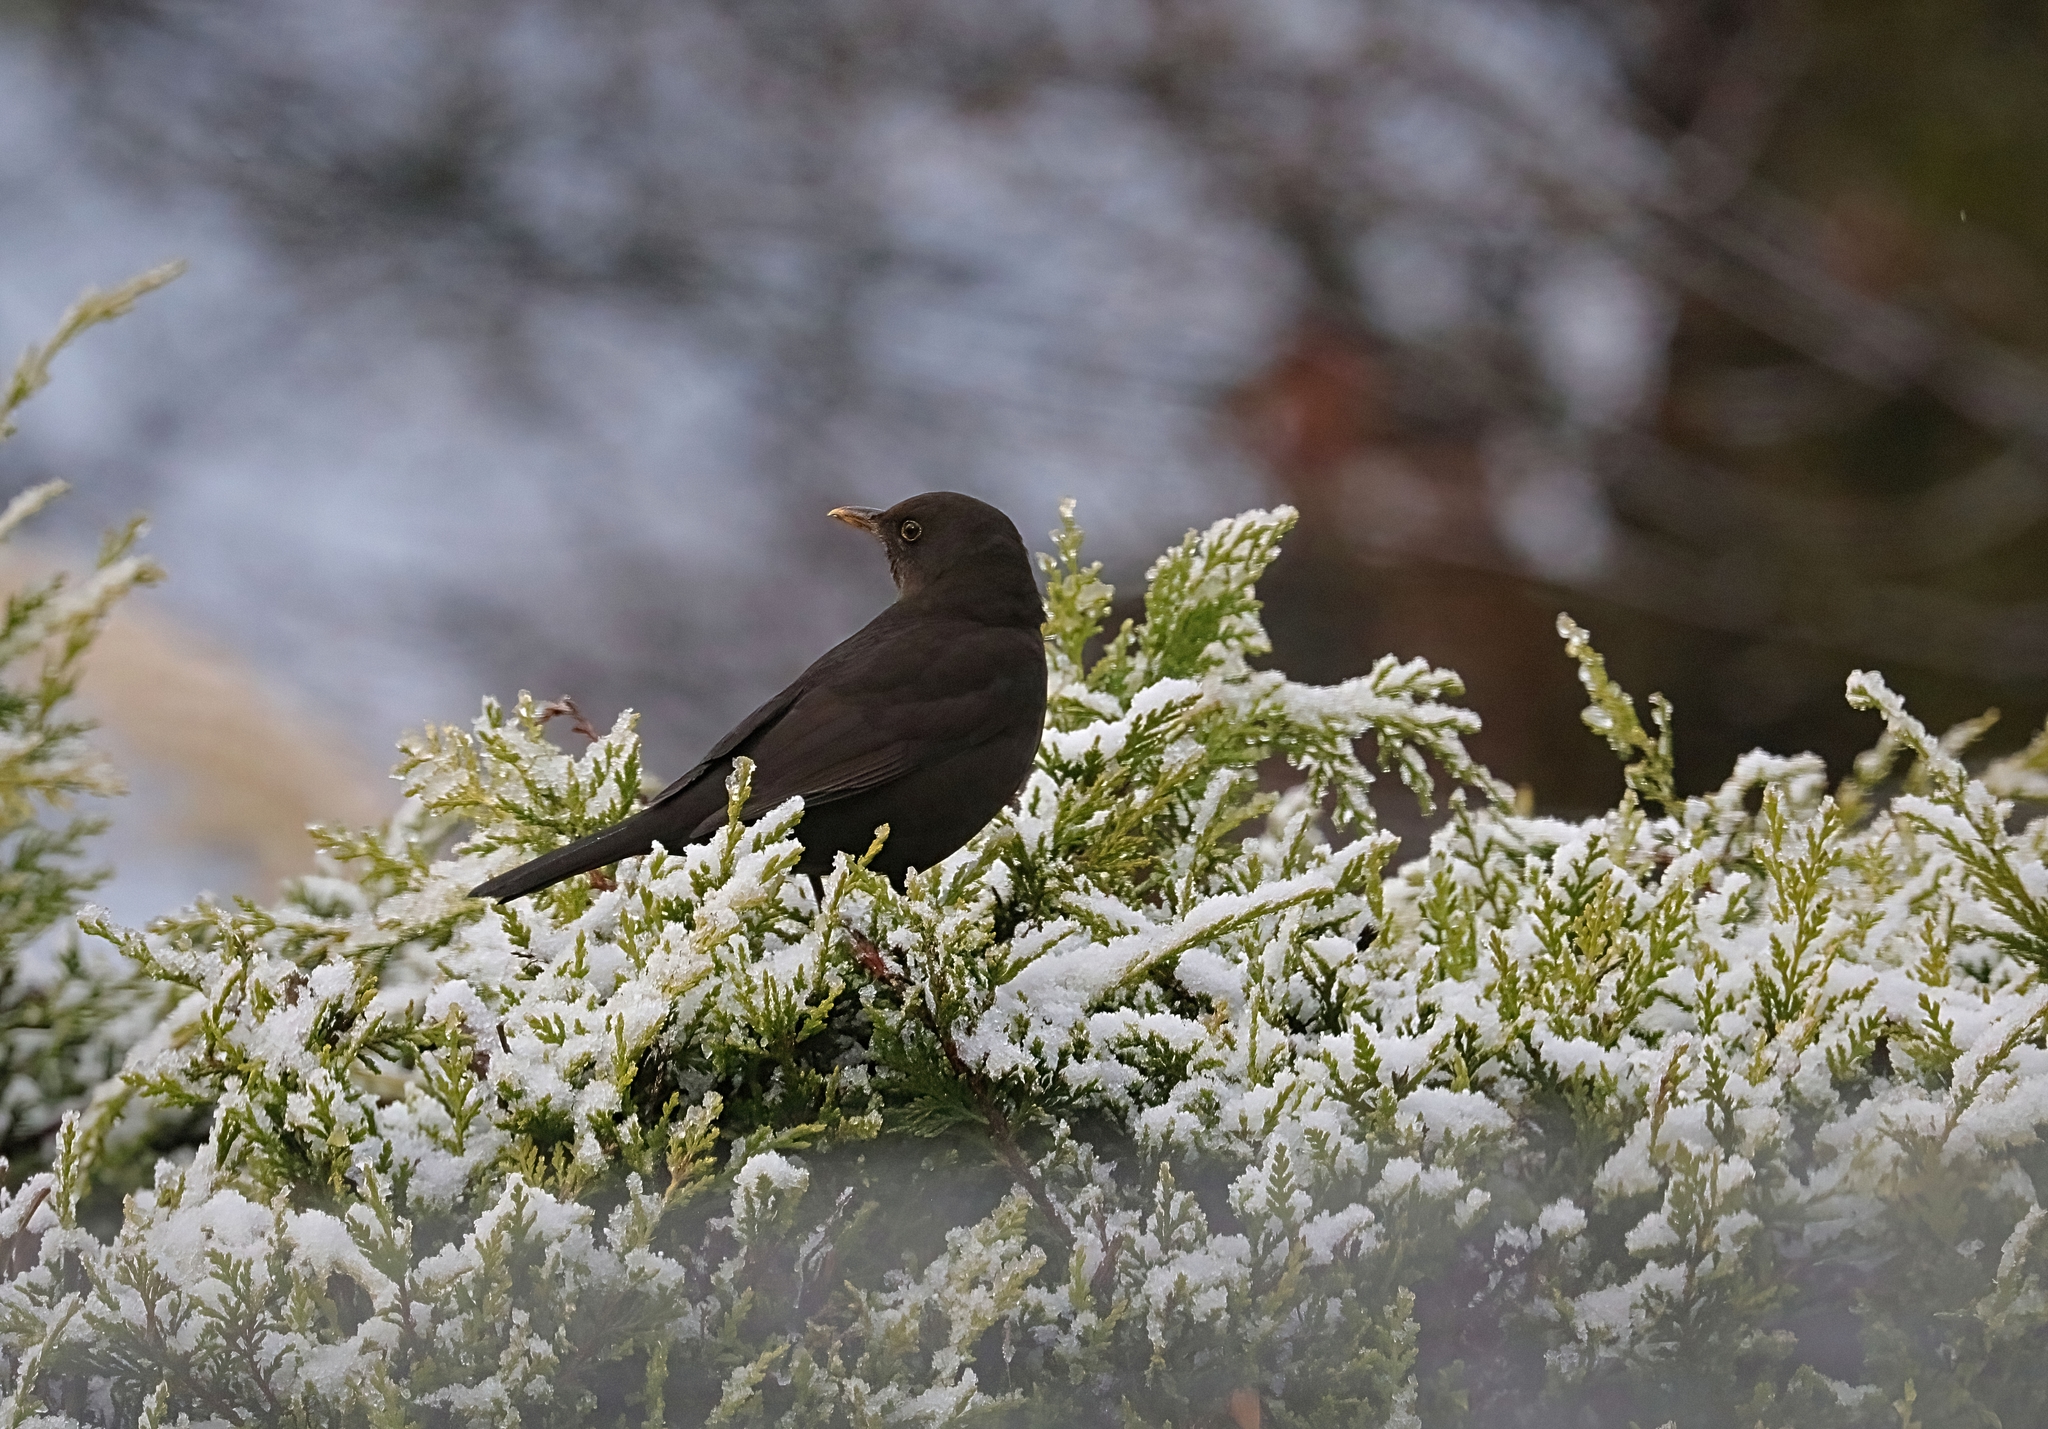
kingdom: Animalia
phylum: Chordata
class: Aves
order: Passeriformes
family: Turdidae
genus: Turdus
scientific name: Turdus merula
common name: Common blackbird
